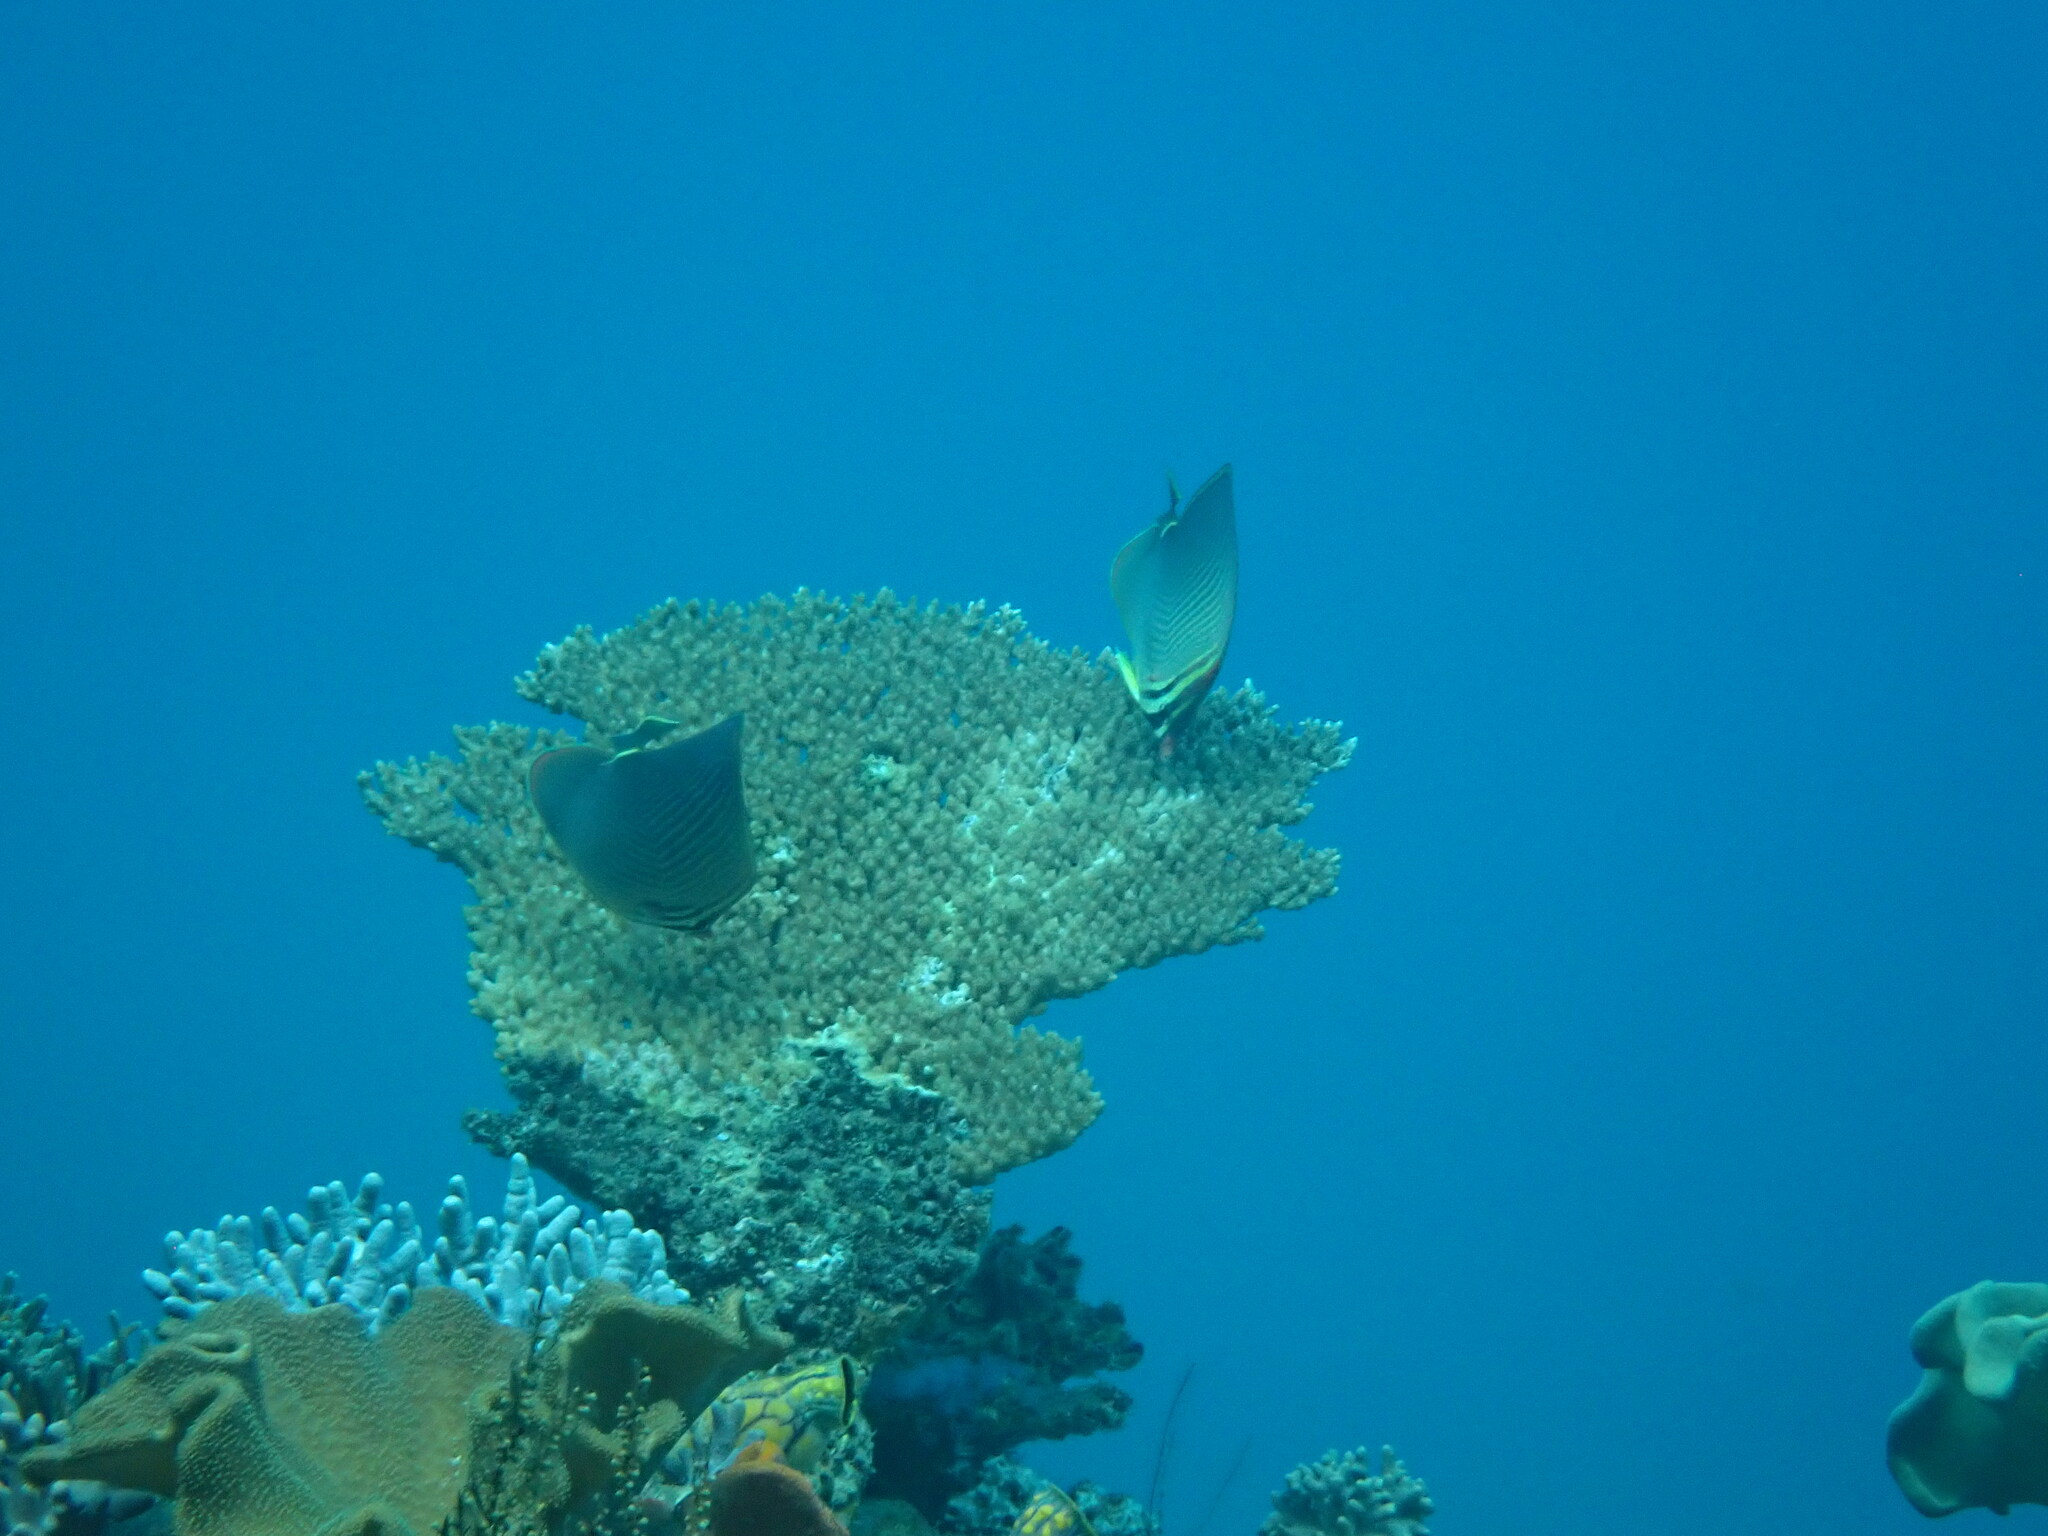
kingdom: Animalia
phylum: Chordata
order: Perciformes
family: Chaetodontidae
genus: Chaetodon
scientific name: Chaetodon baronessa
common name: Triangular butterflyfish
